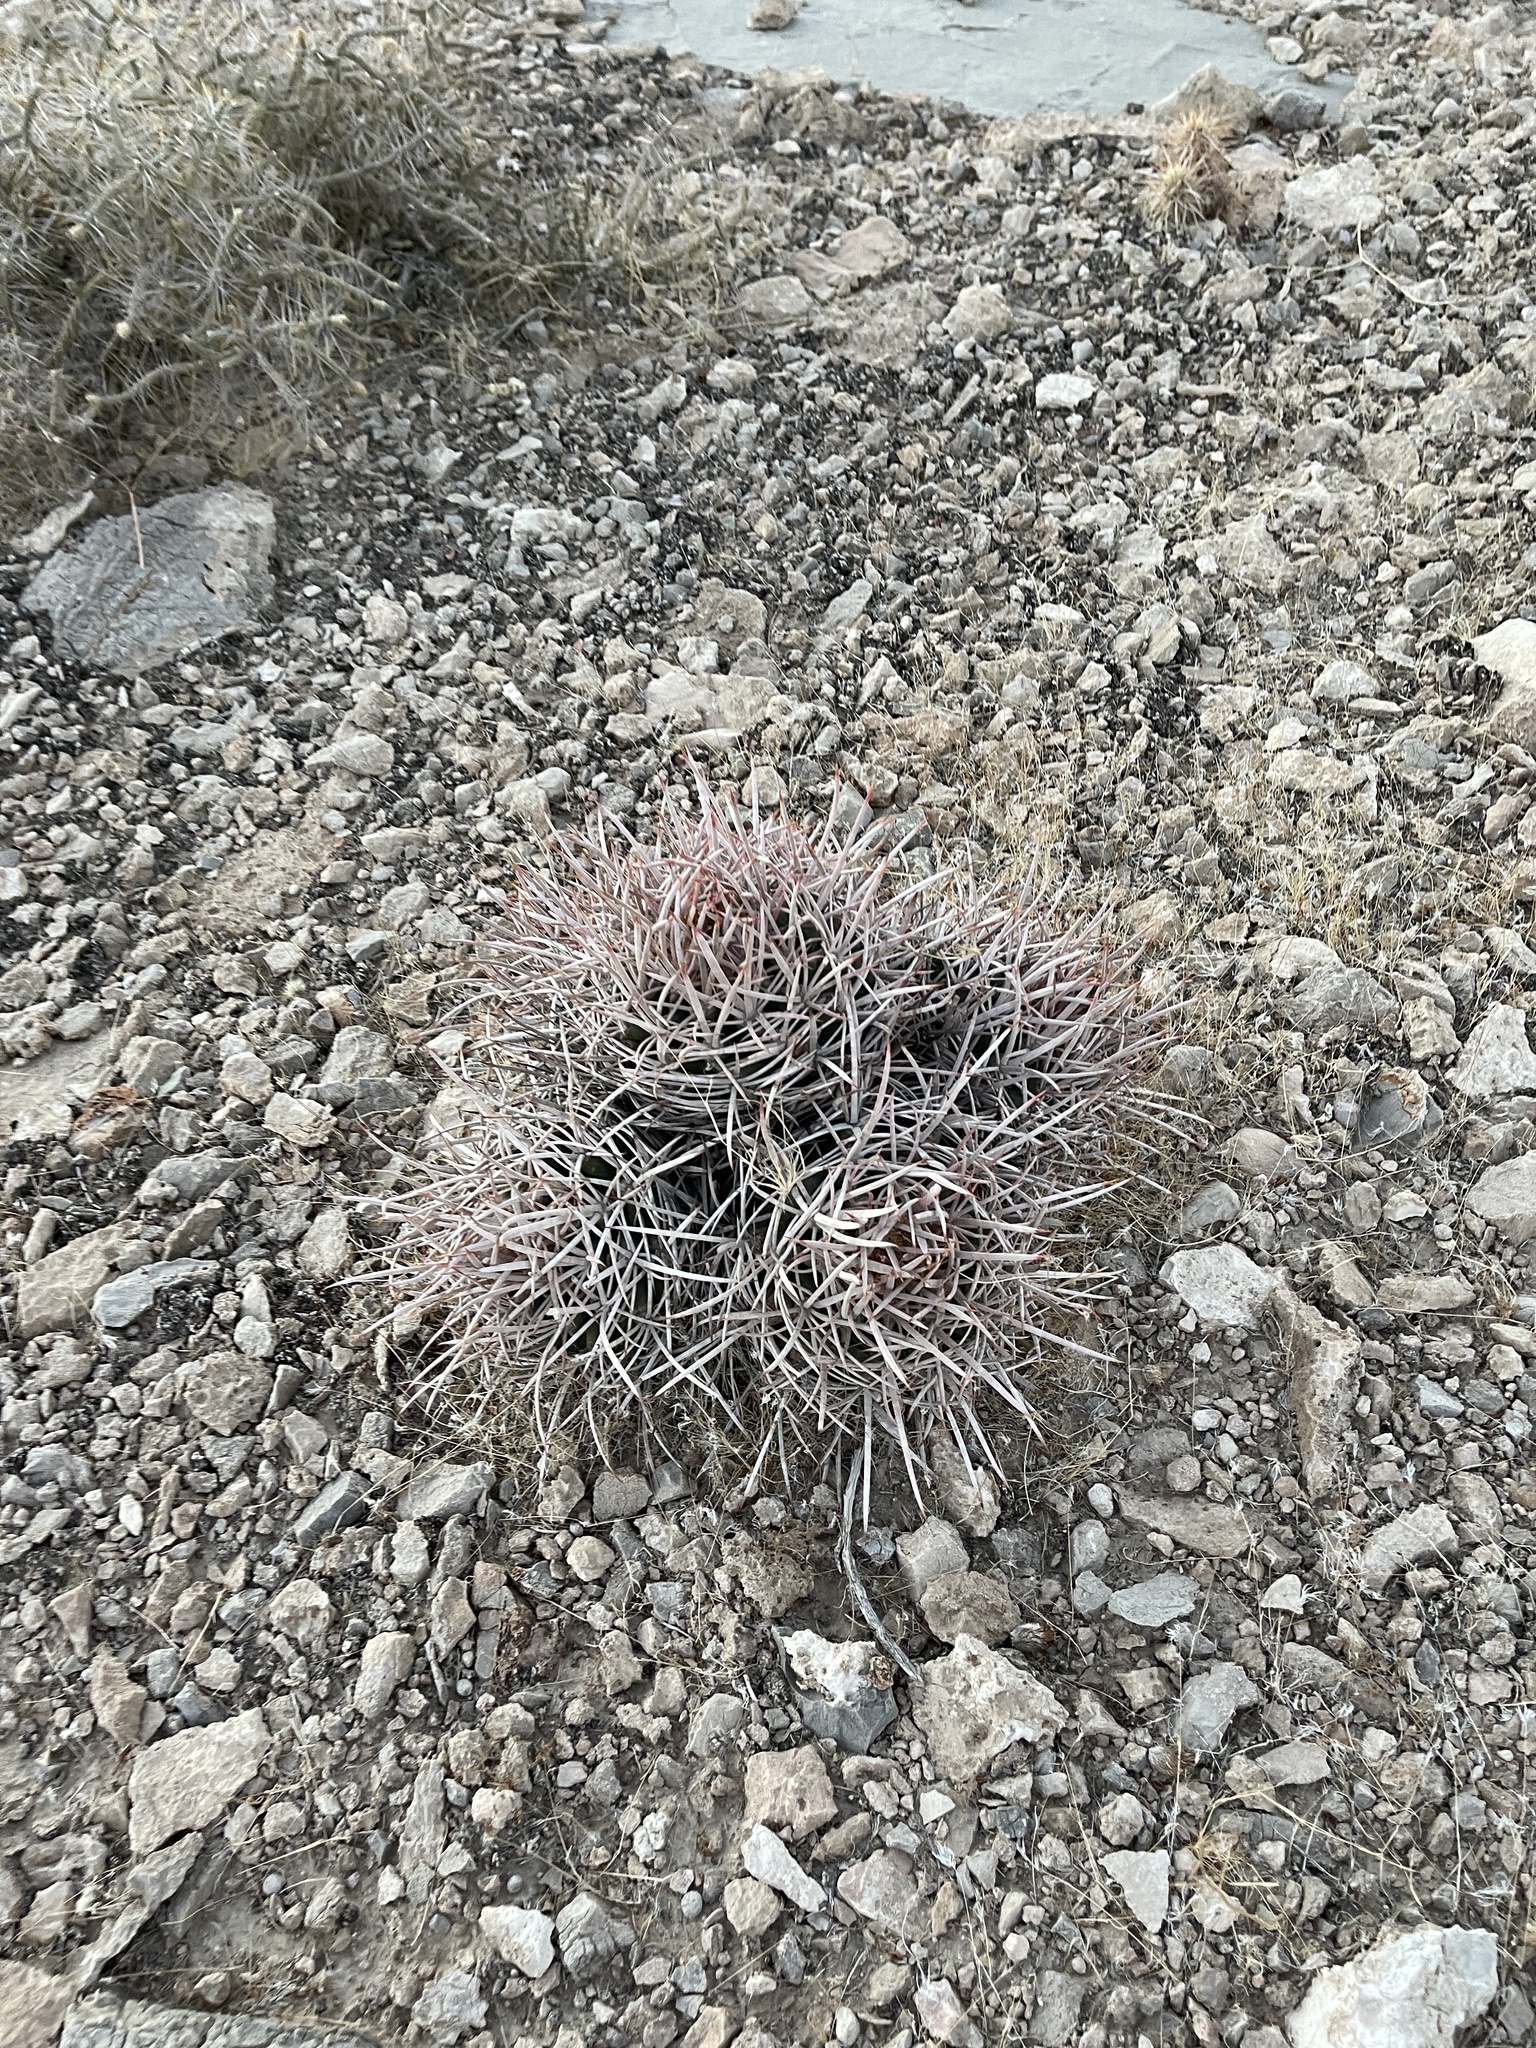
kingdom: Plantae
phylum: Tracheophyta
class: Magnoliopsida
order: Caryophyllales
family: Cactaceae
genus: Echinocactus
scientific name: Echinocactus polycephalus
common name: Cottontop cactus
